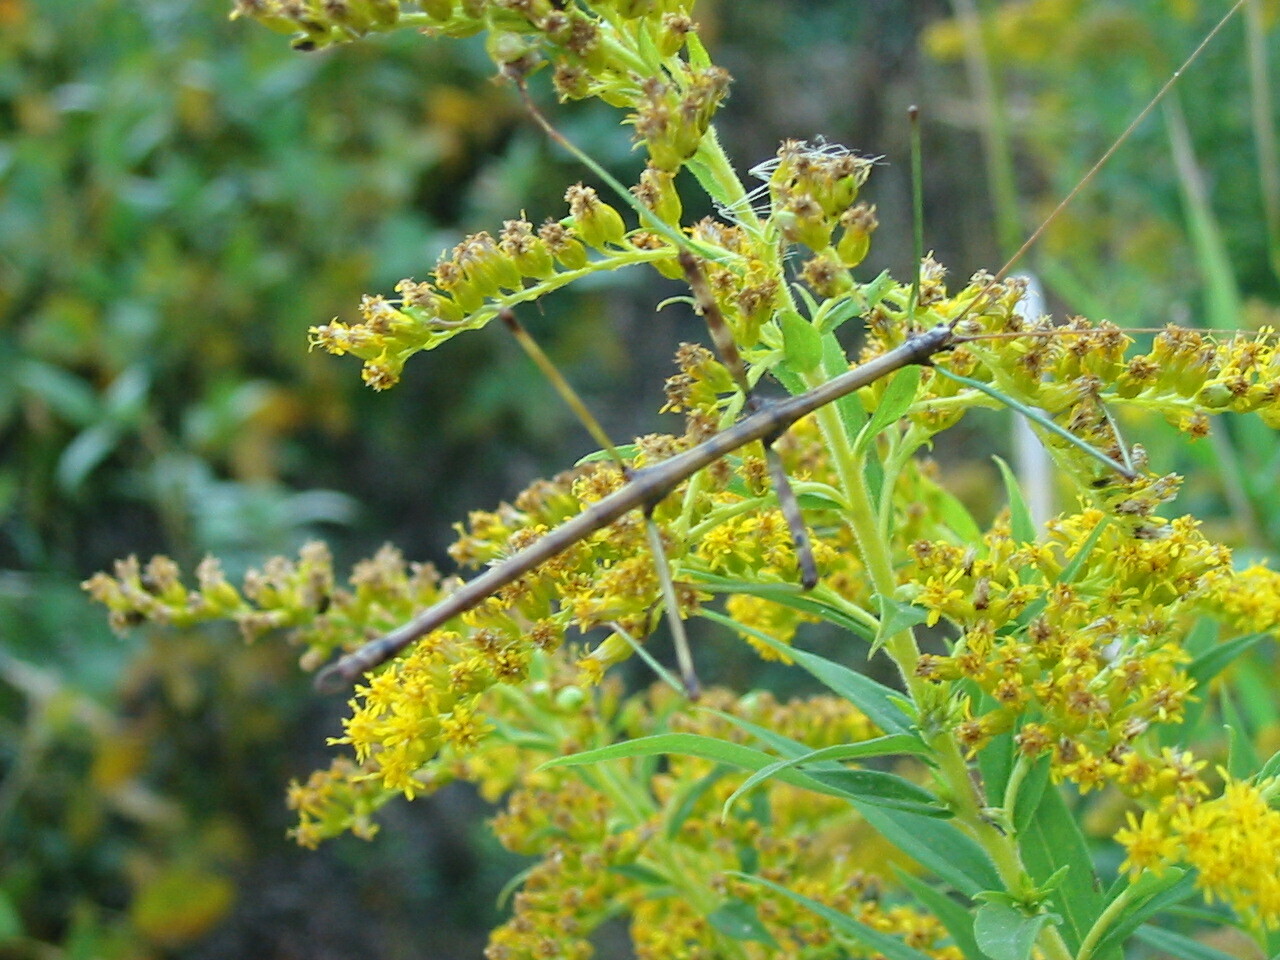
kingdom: Animalia
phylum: Arthropoda
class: Insecta
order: Phasmida
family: Diapheromeridae
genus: Diapheromera
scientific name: Diapheromera femorata
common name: Common american walkingstick
